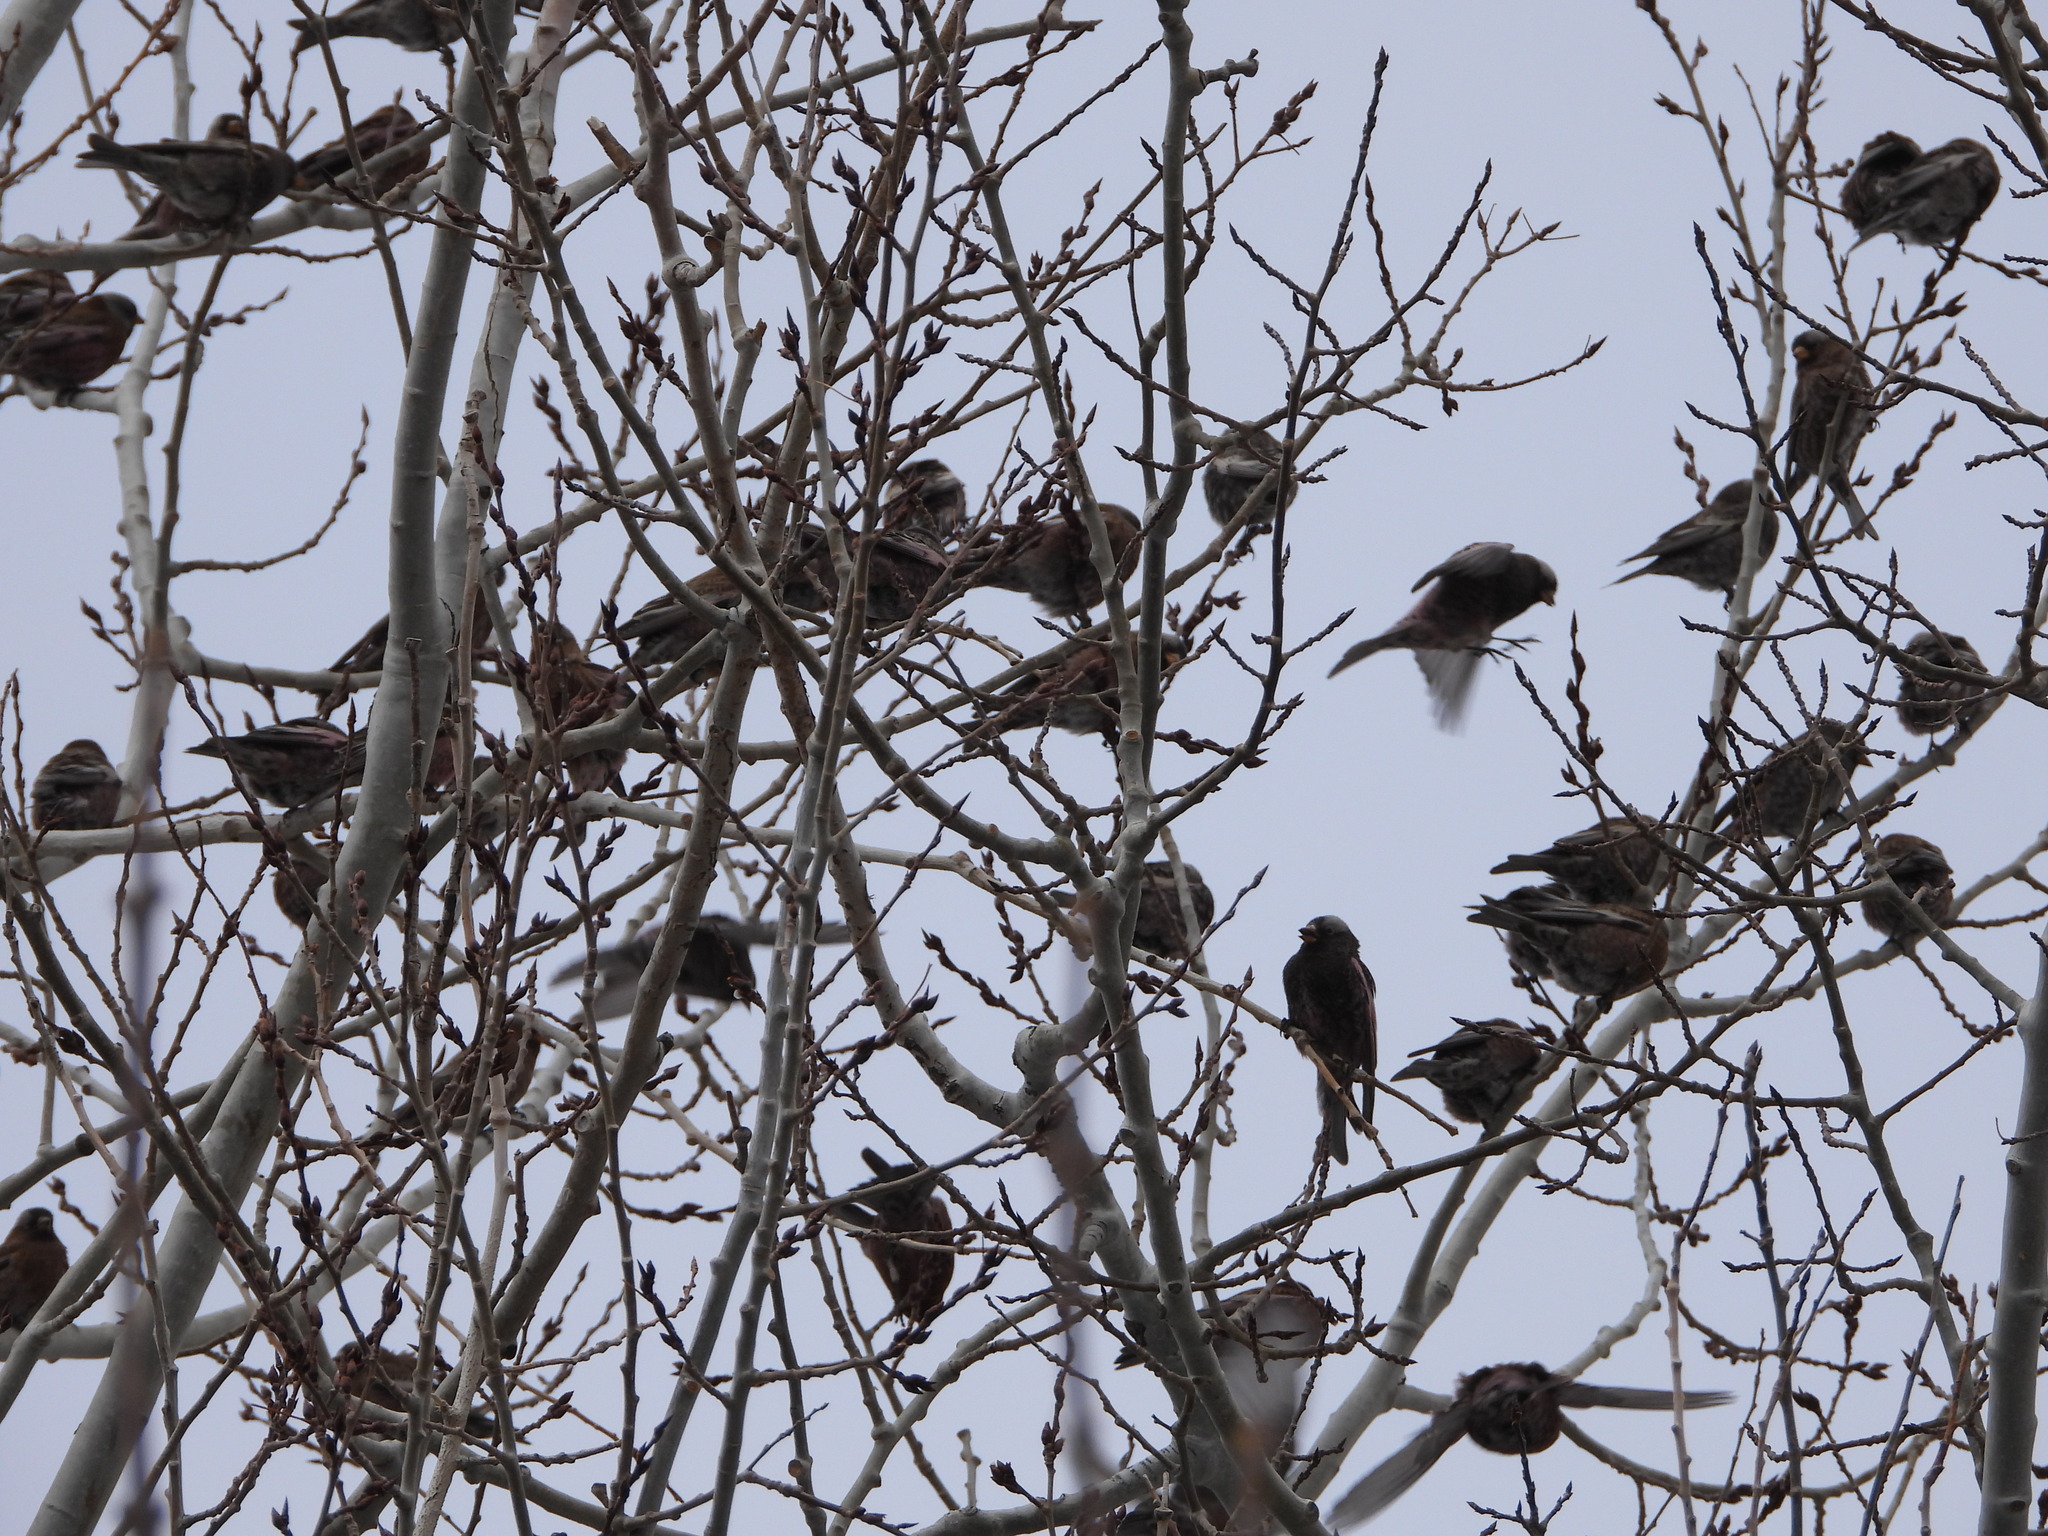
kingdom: Animalia
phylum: Chordata
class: Aves
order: Passeriformes
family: Fringillidae
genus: Leucosticte
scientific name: Leucosticte atrata
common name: Black rosy-finch
